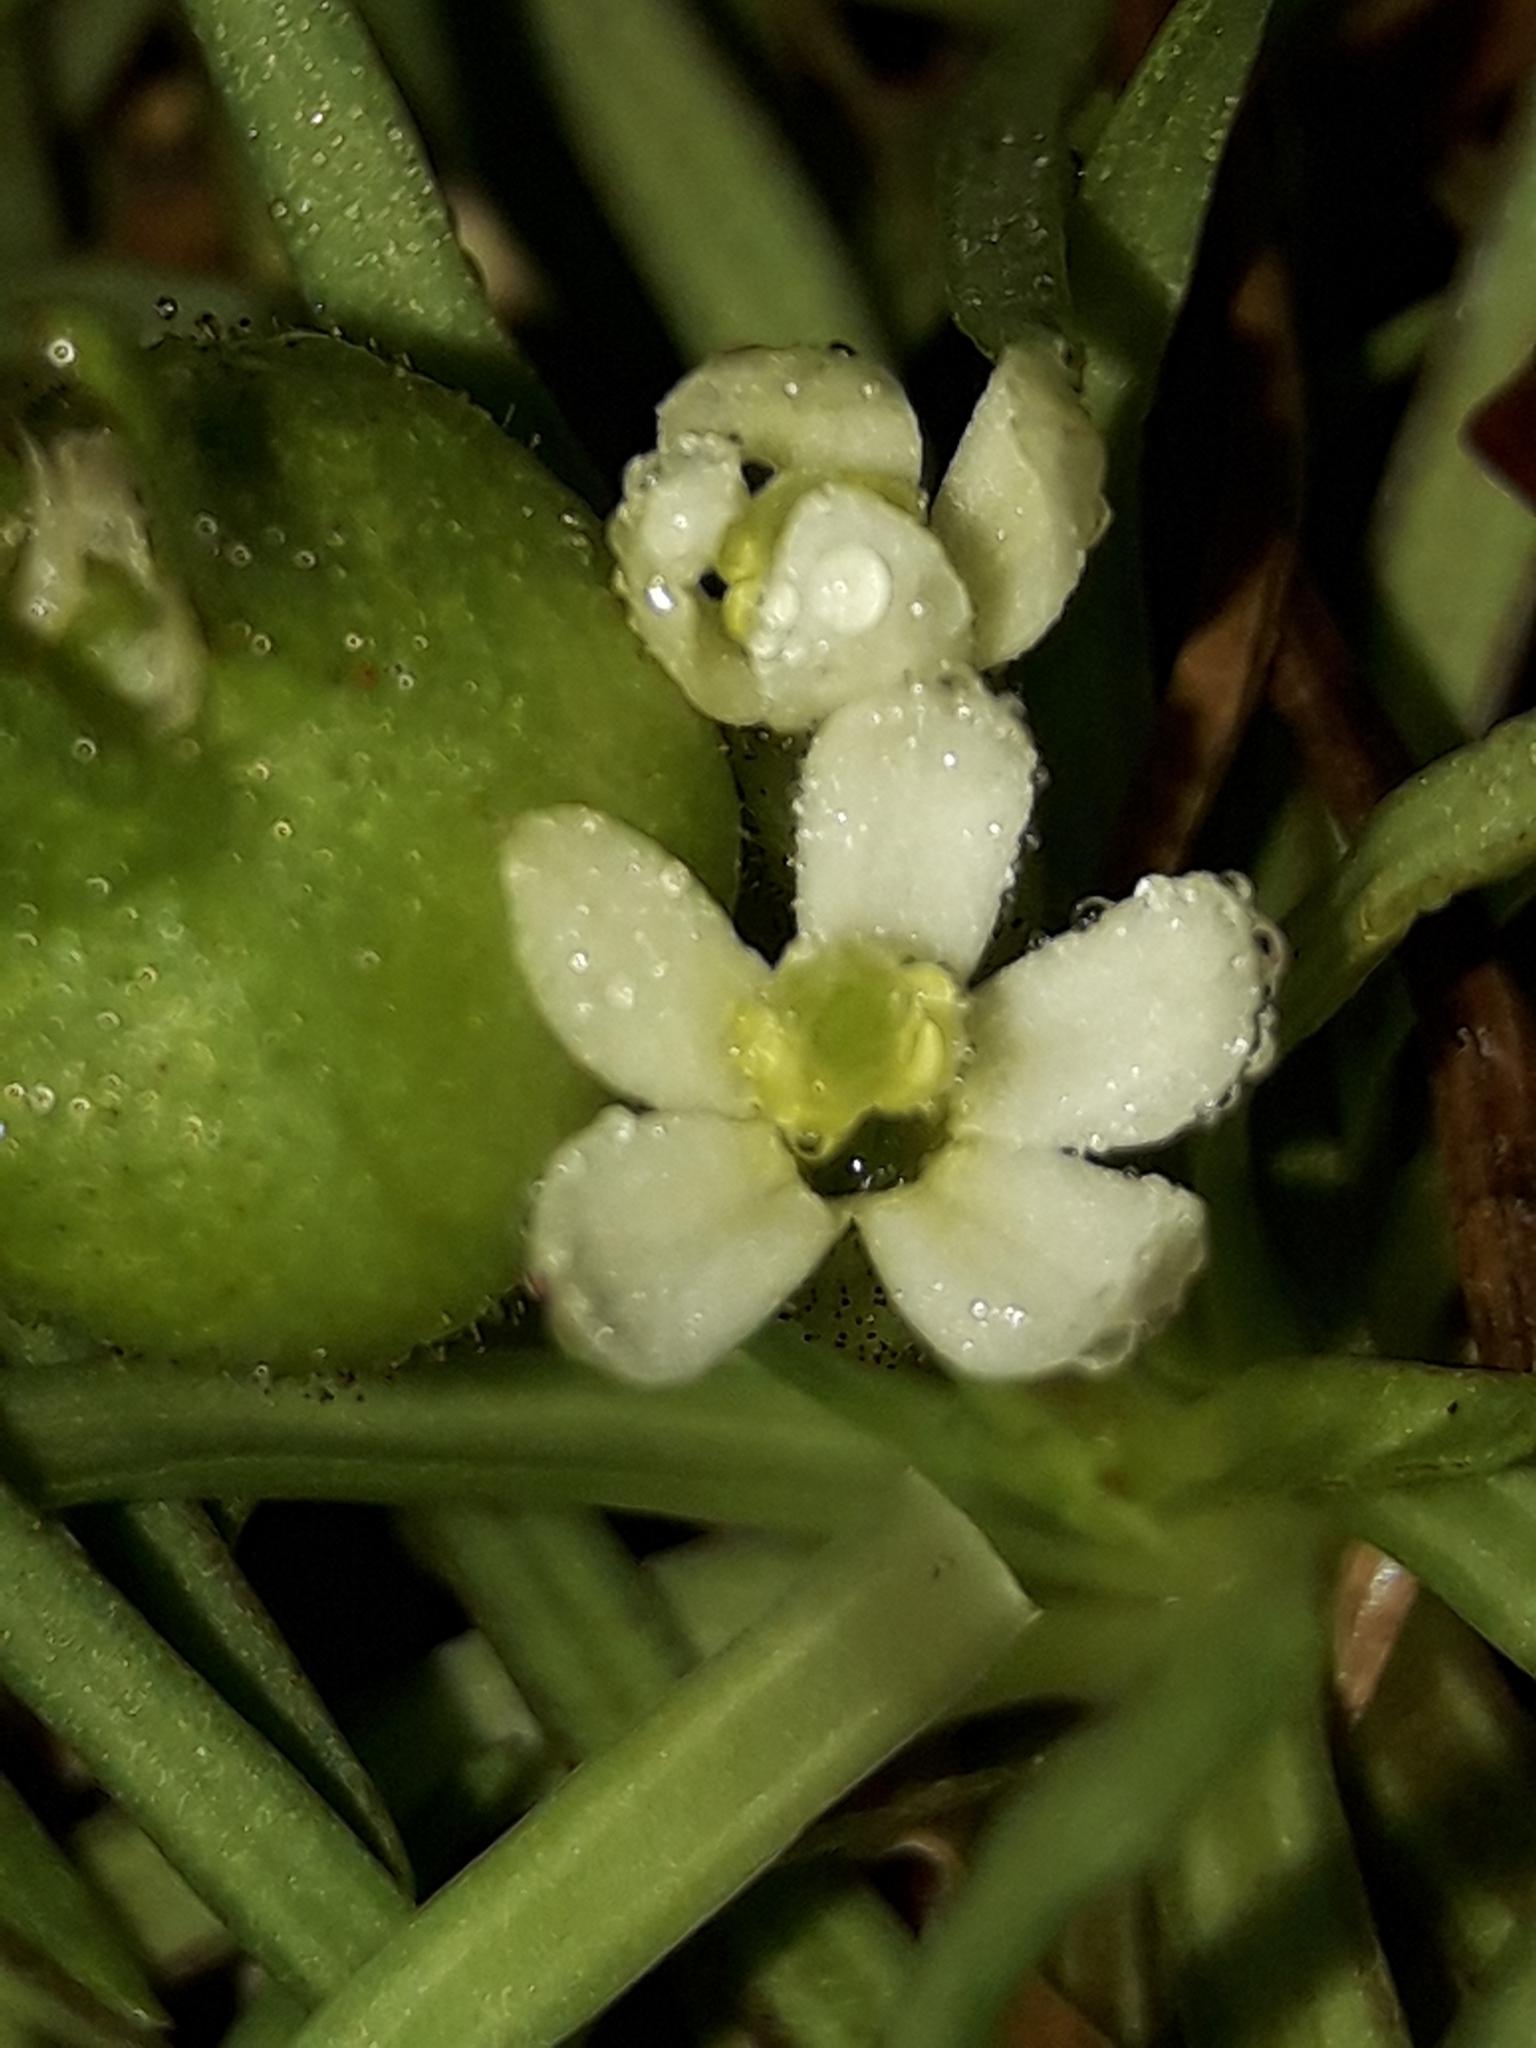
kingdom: Plantae
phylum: Tracheophyta
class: Magnoliopsida
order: Asterales
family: Stylidiaceae
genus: Oreostylidium
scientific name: Oreostylidium subulatum
